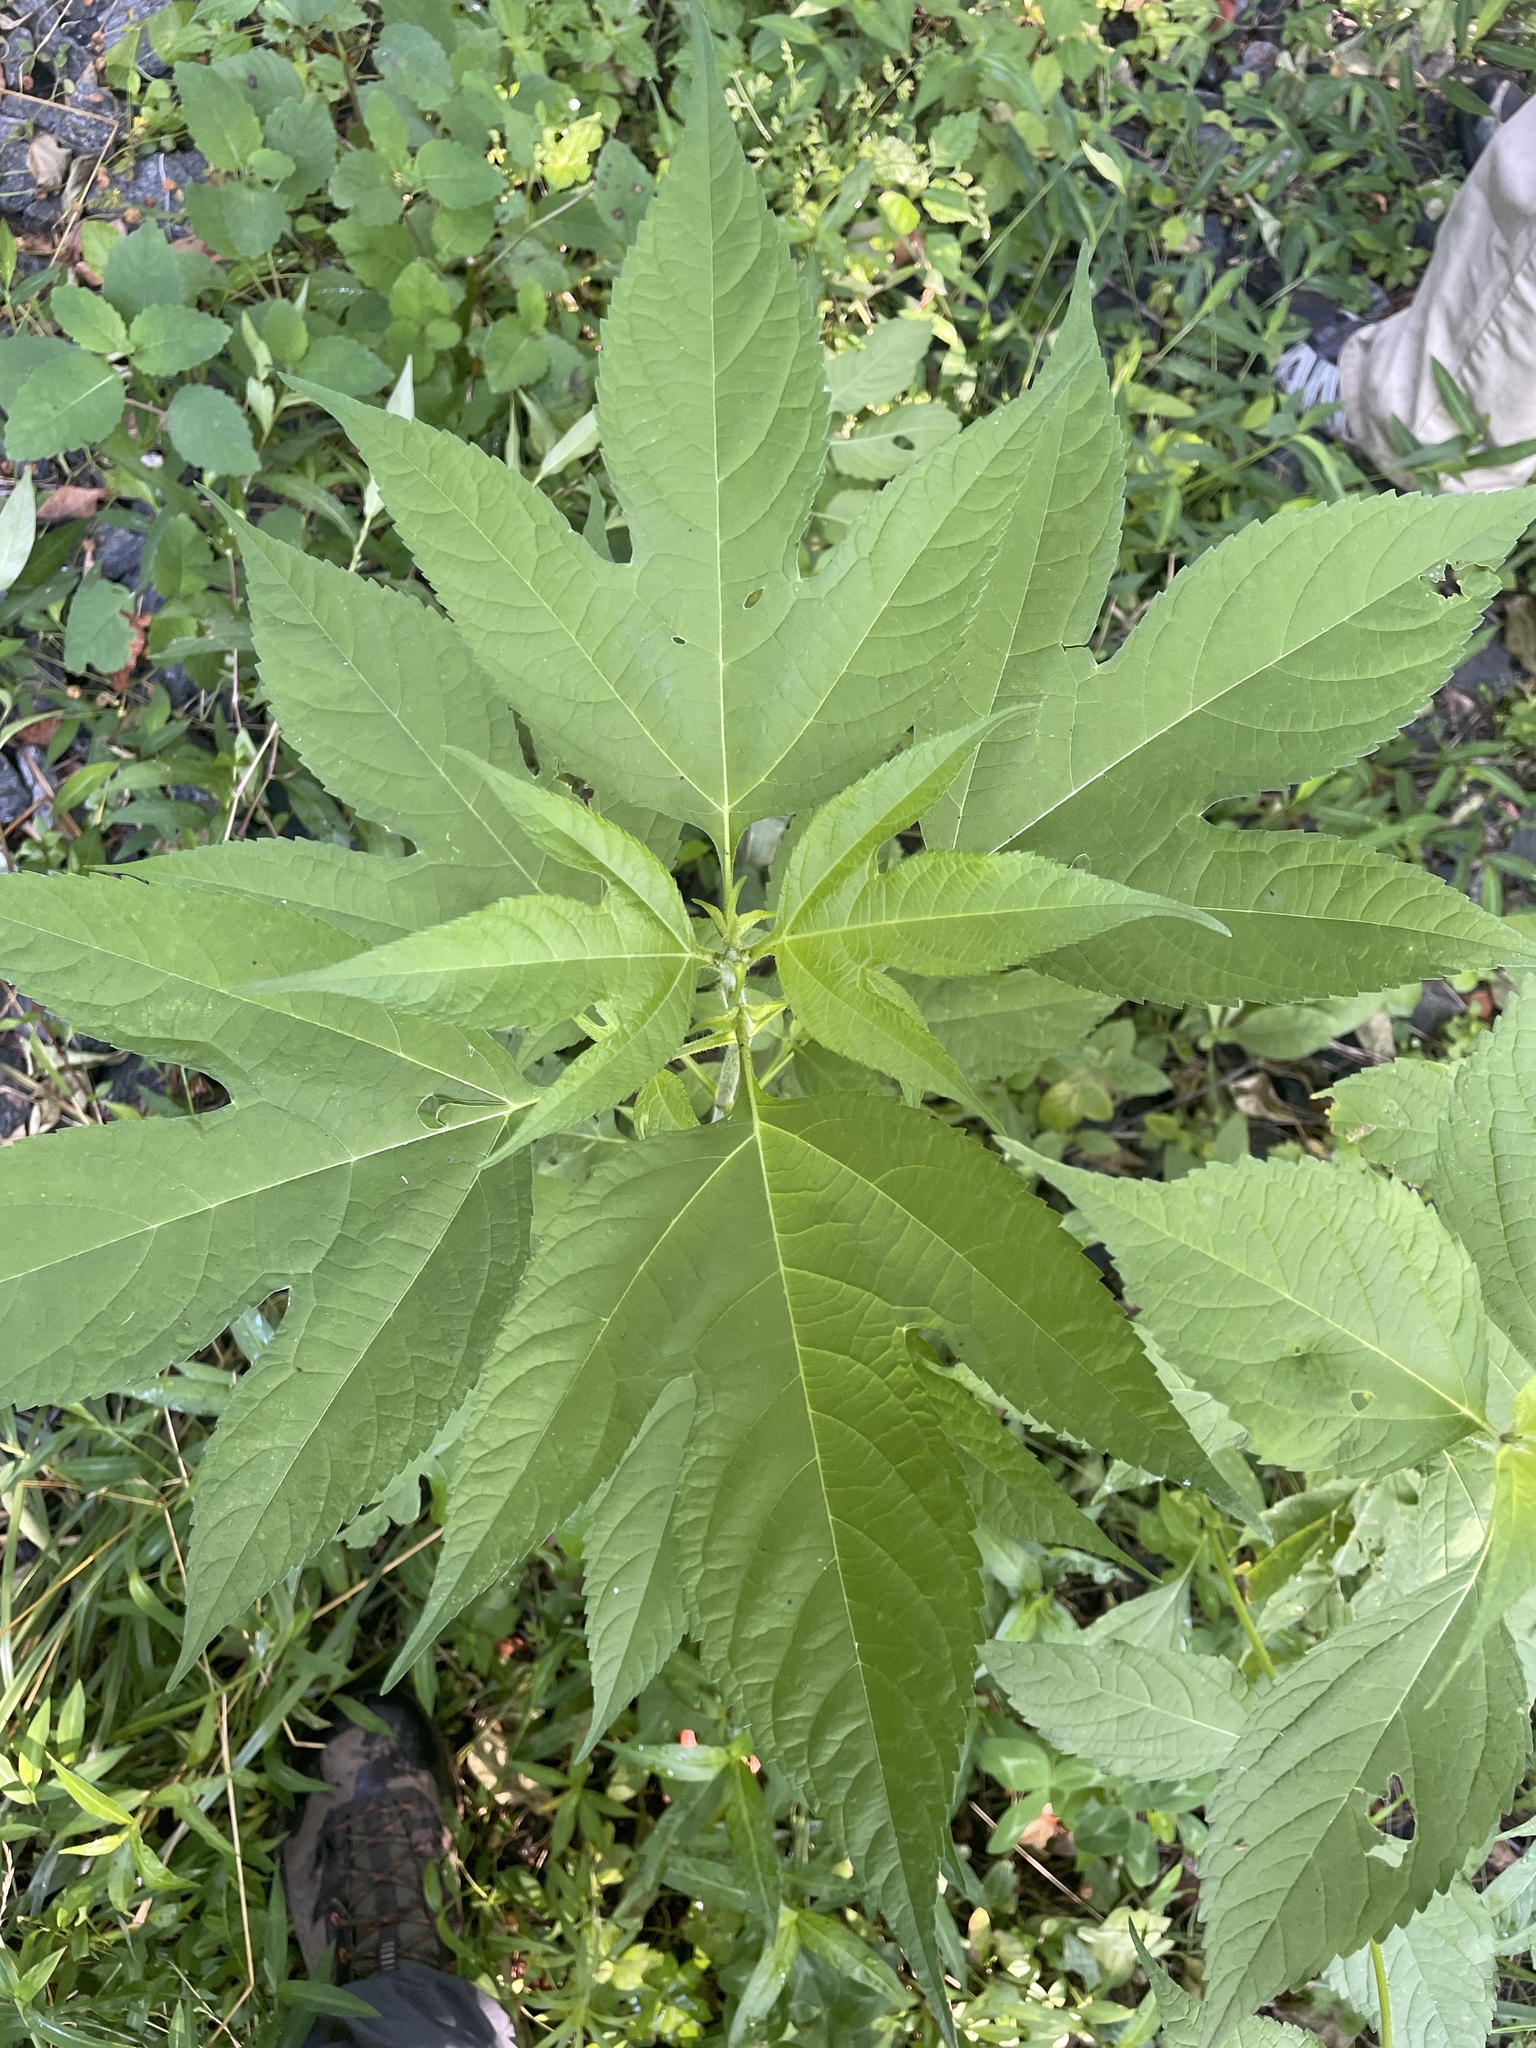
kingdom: Plantae
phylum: Tracheophyta
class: Magnoliopsida
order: Asterales
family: Asteraceae
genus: Ambrosia
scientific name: Ambrosia trifida
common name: Giant ragweed
